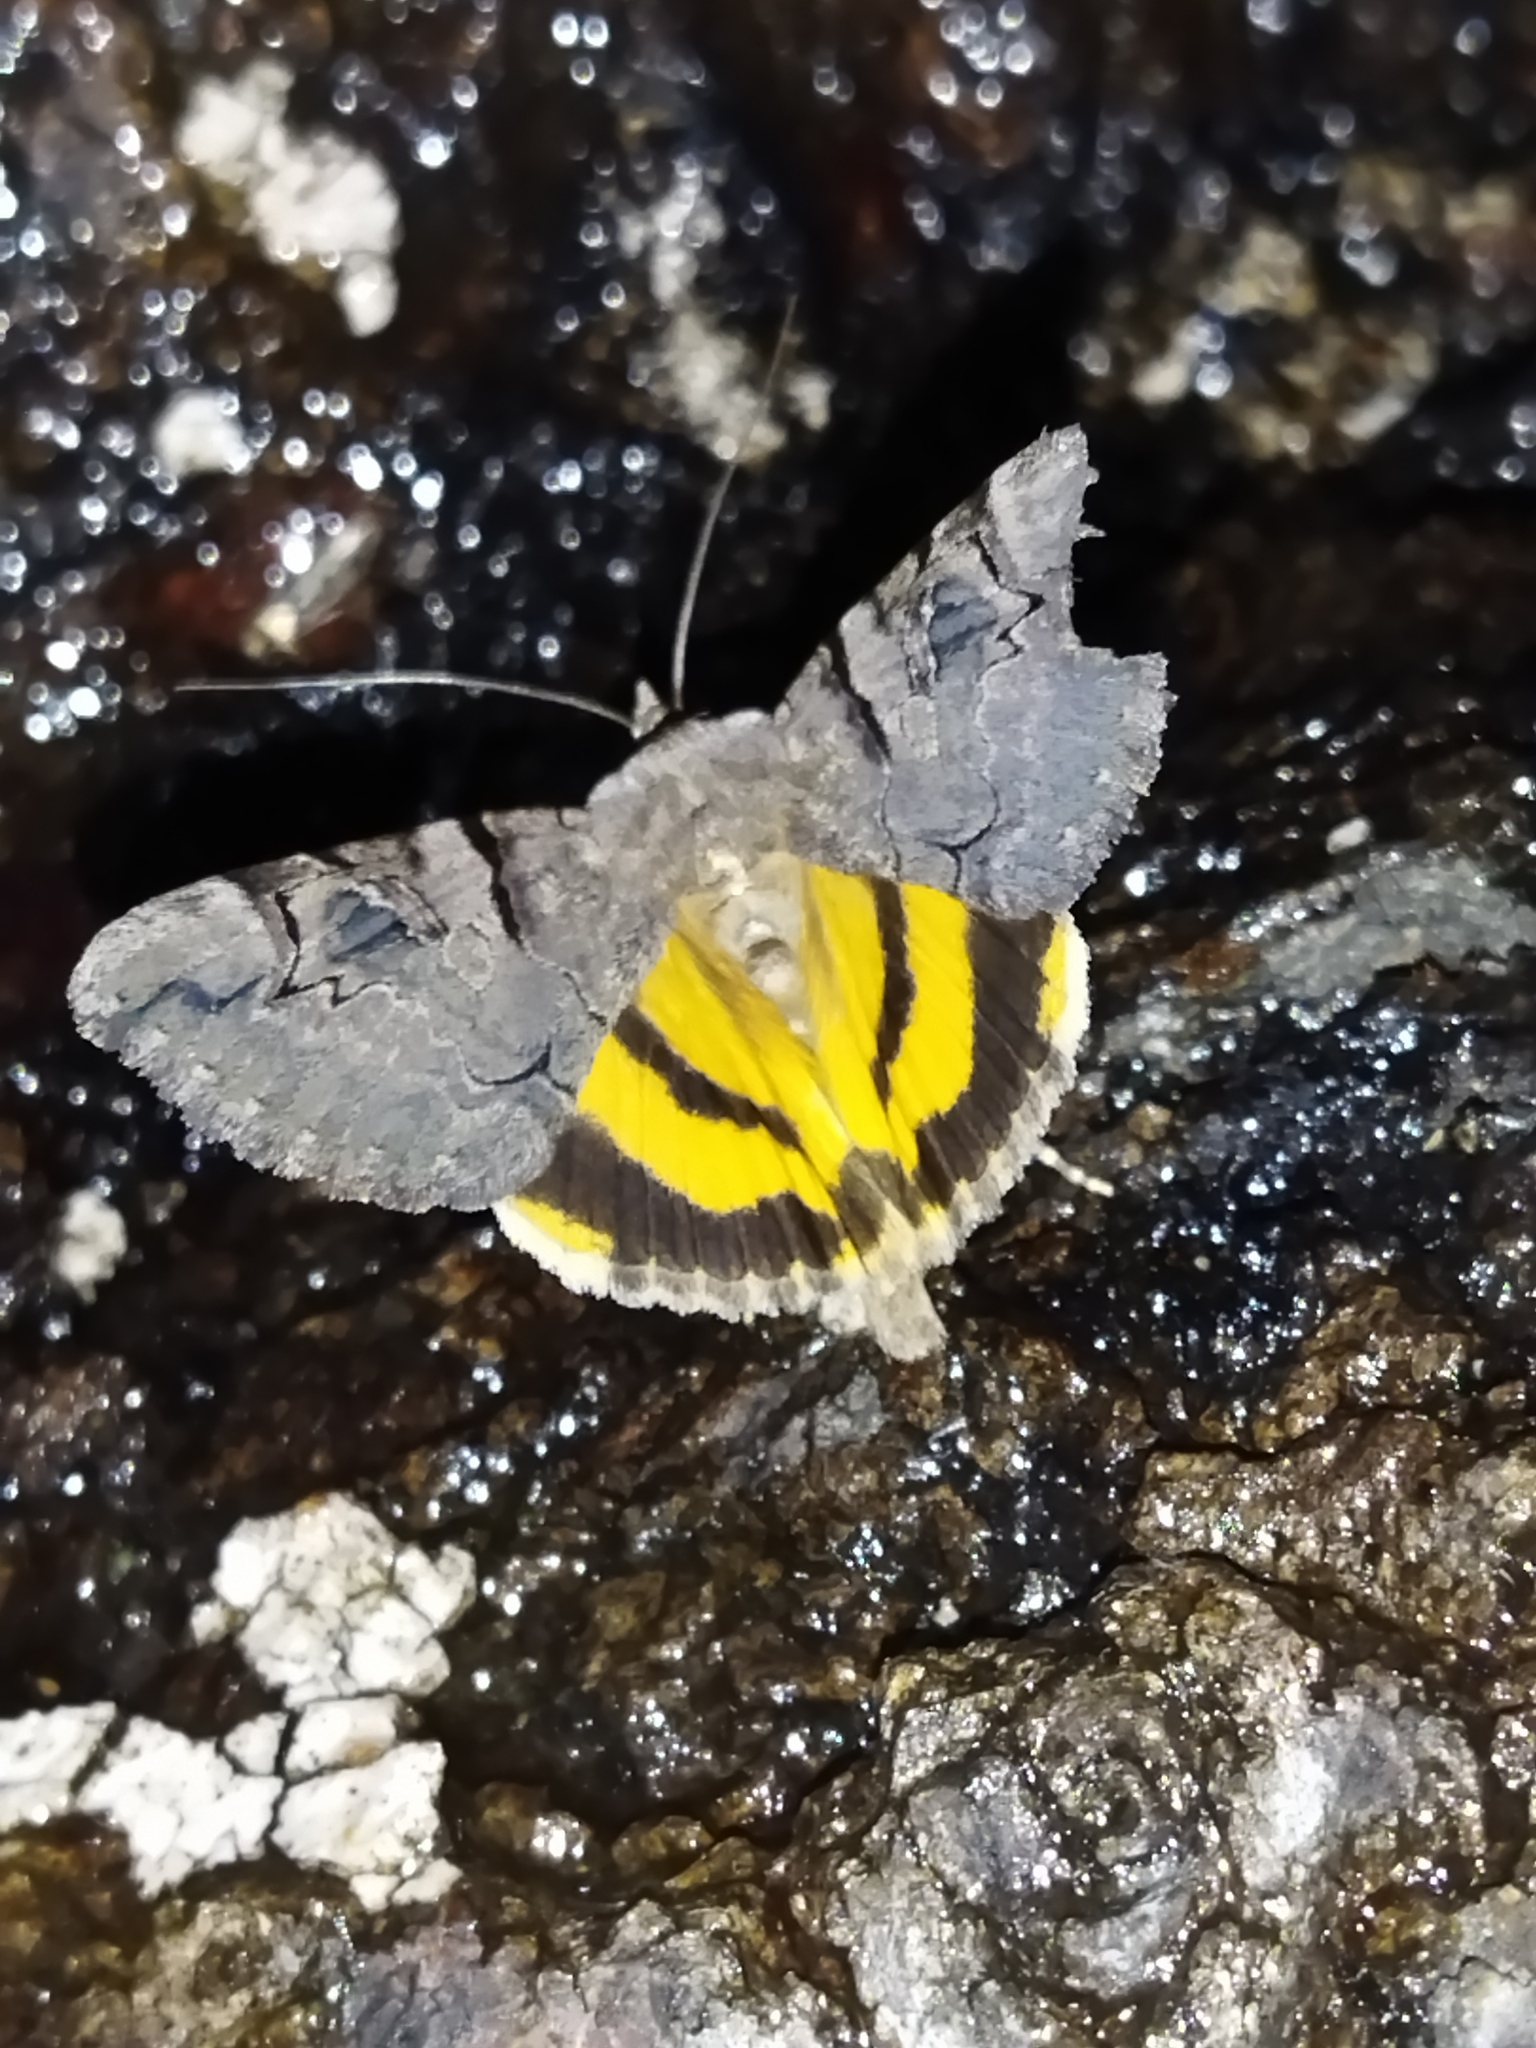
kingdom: Animalia
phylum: Arthropoda
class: Insecta
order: Lepidoptera
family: Erebidae
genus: Catocala
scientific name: Catocala hymenaea
